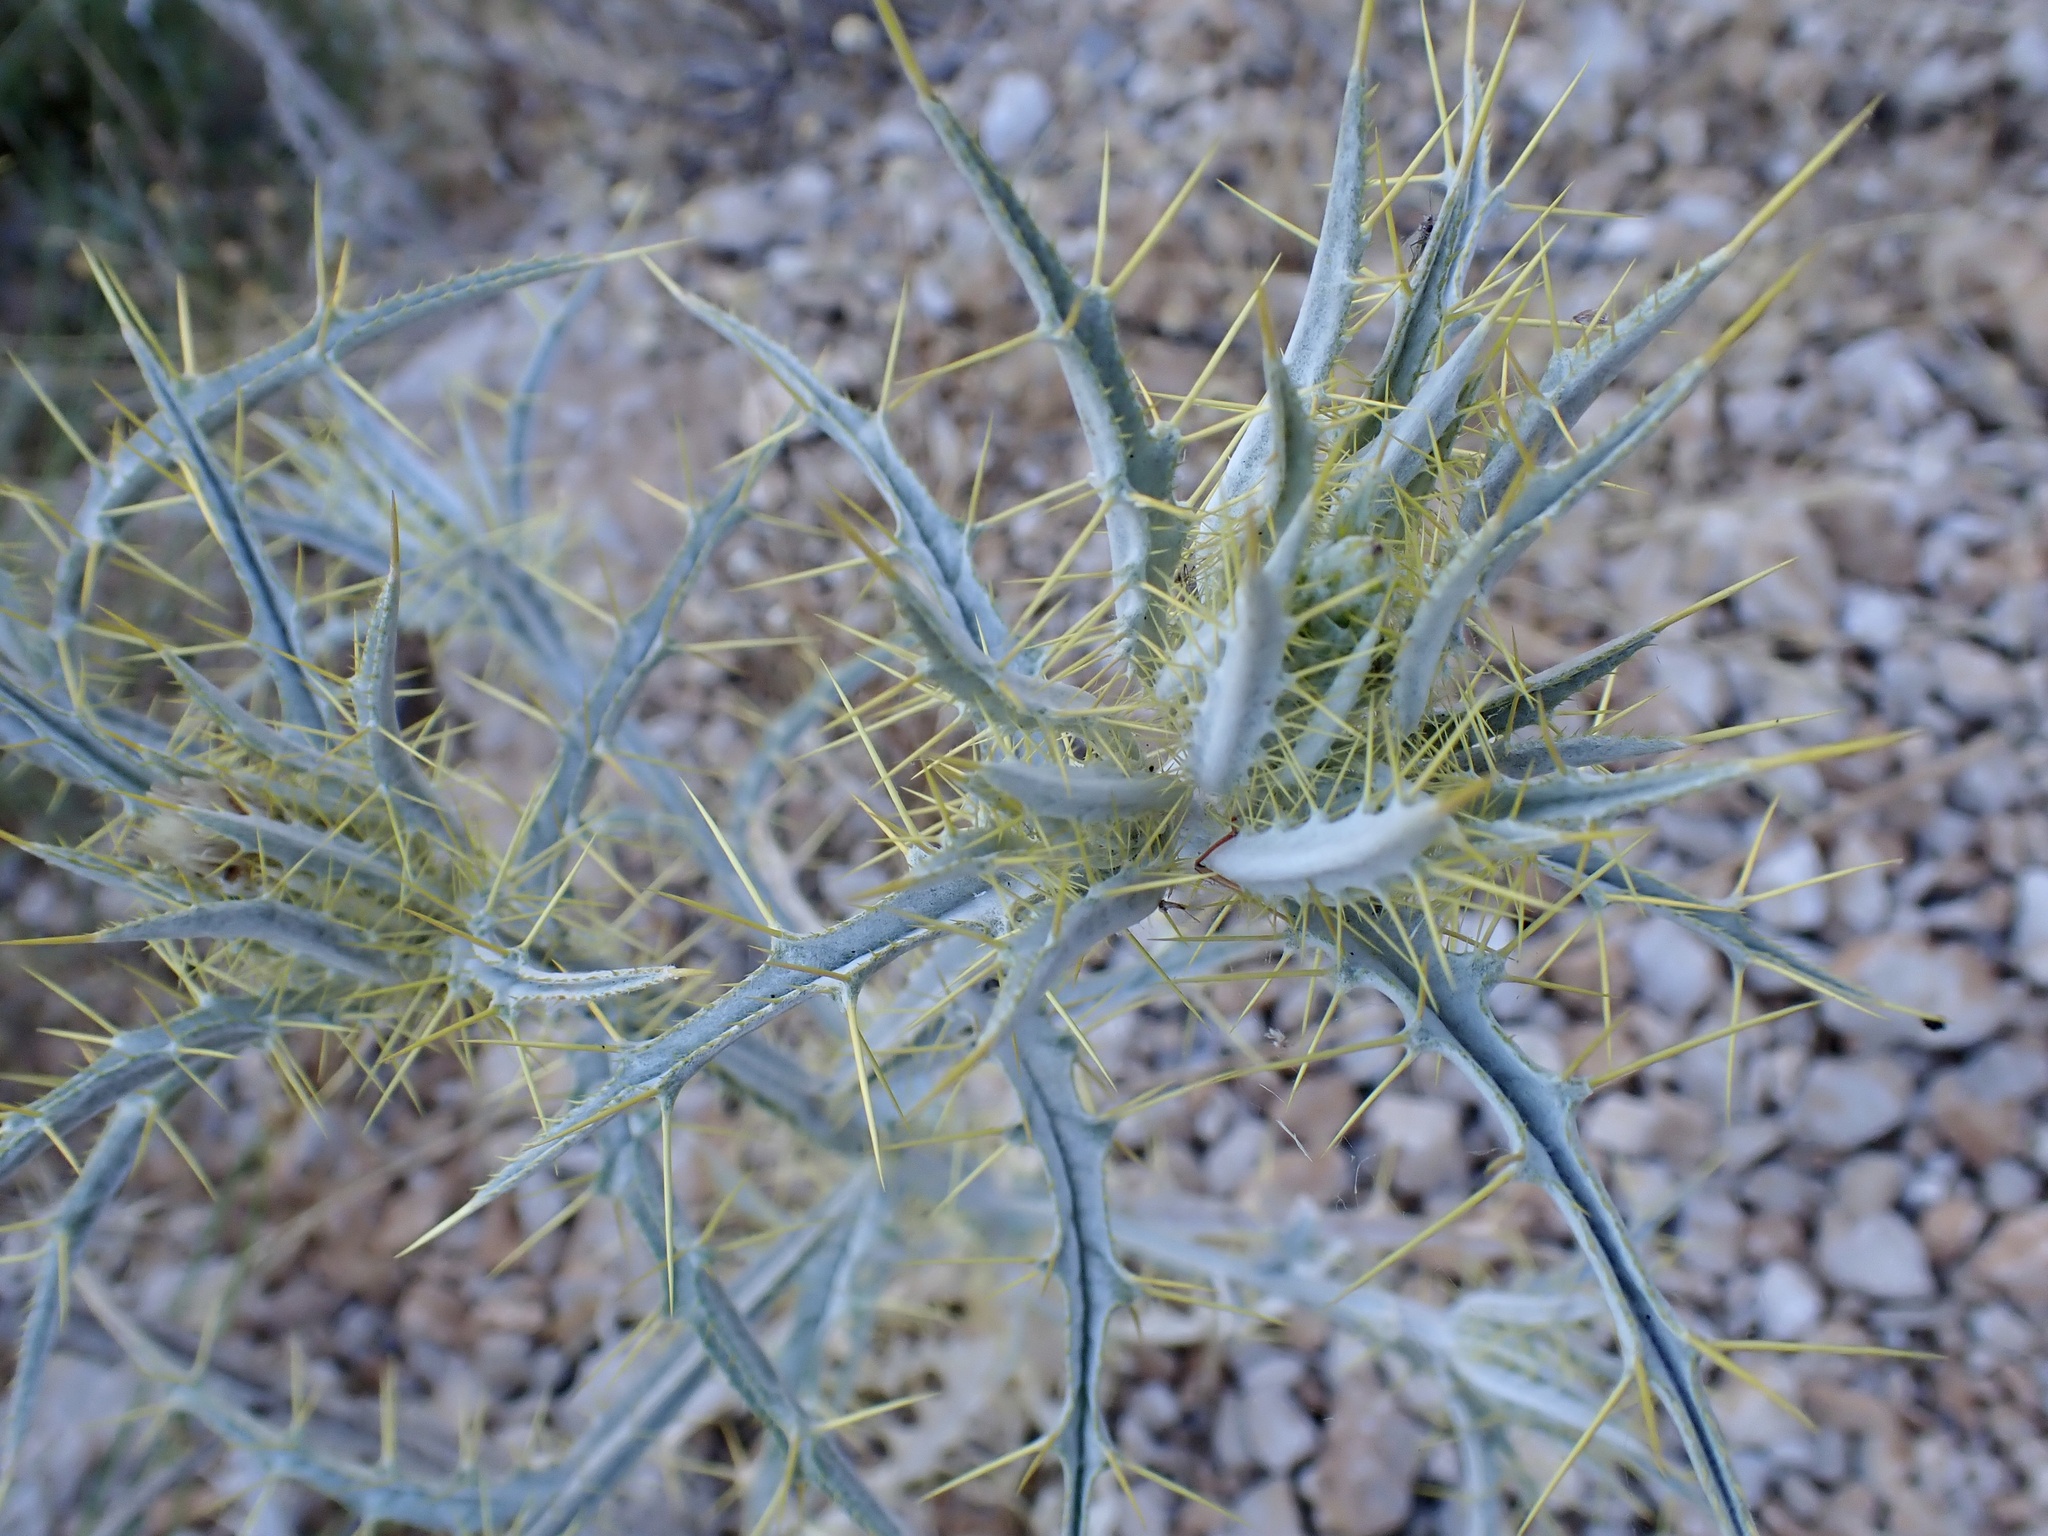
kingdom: Plantae
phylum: Tracheophyta
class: Magnoliopsida
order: Asterales
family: Asteraceae
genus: Picnomon
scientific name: Picnomon acarna
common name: Soldier thistle
